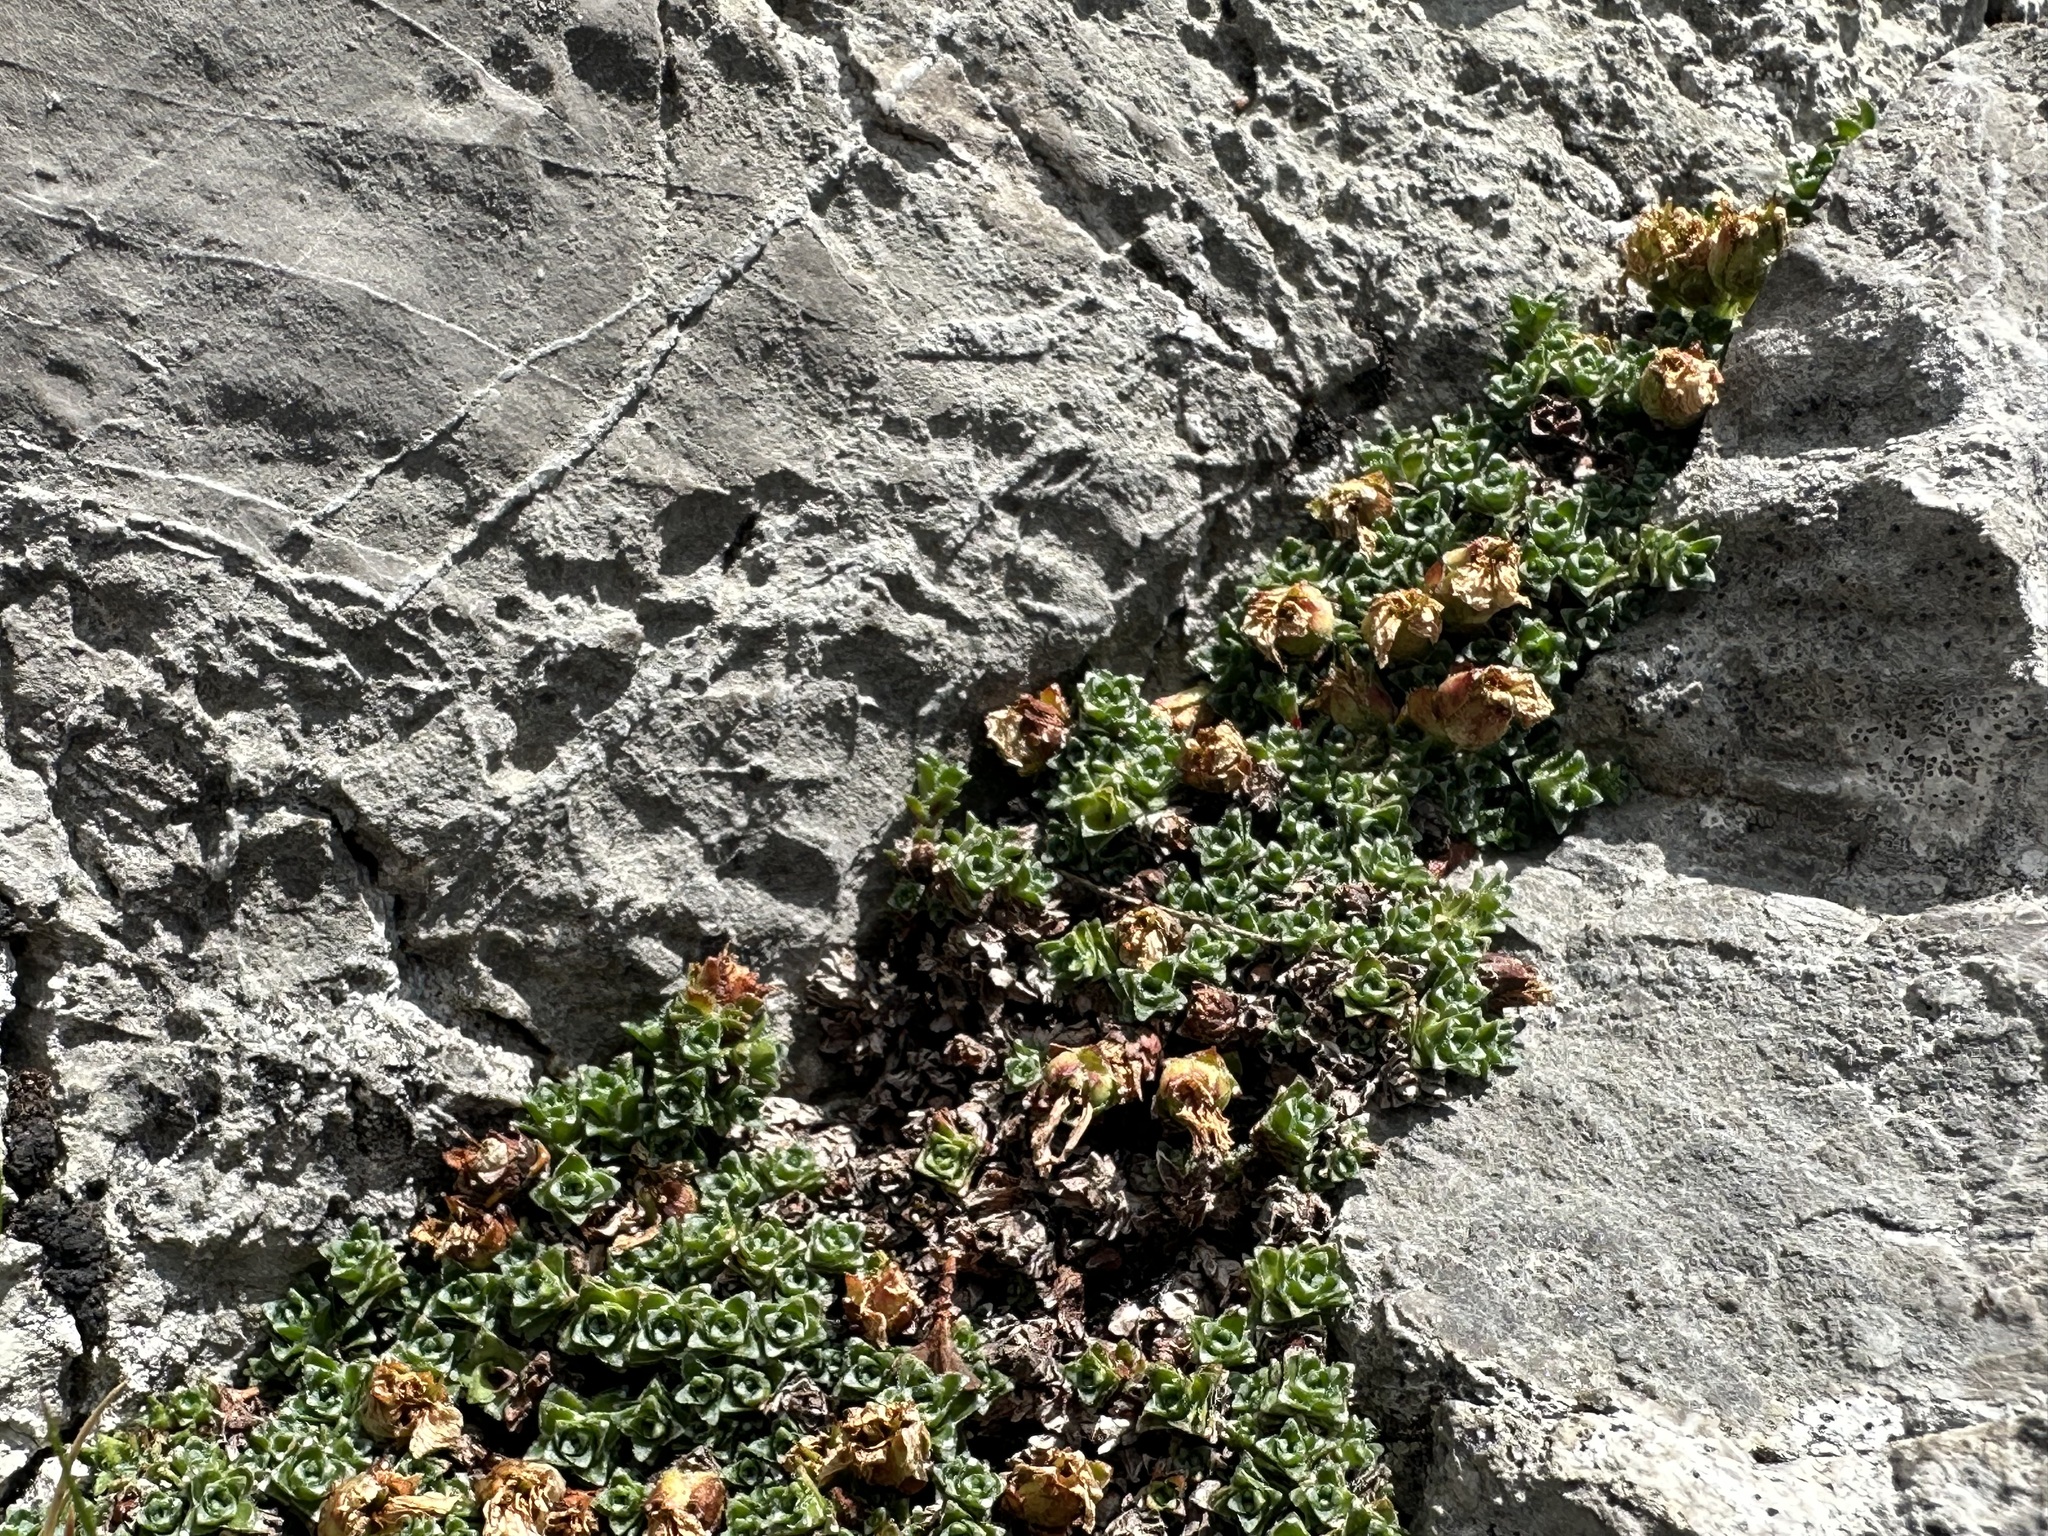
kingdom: Plantae
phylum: Tracheophyta
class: Magnoliopsida
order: Saxifragales
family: Saxifragaceae
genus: Saxifraga
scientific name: Saxifraga oppositifolia
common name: Purple saxifrage
